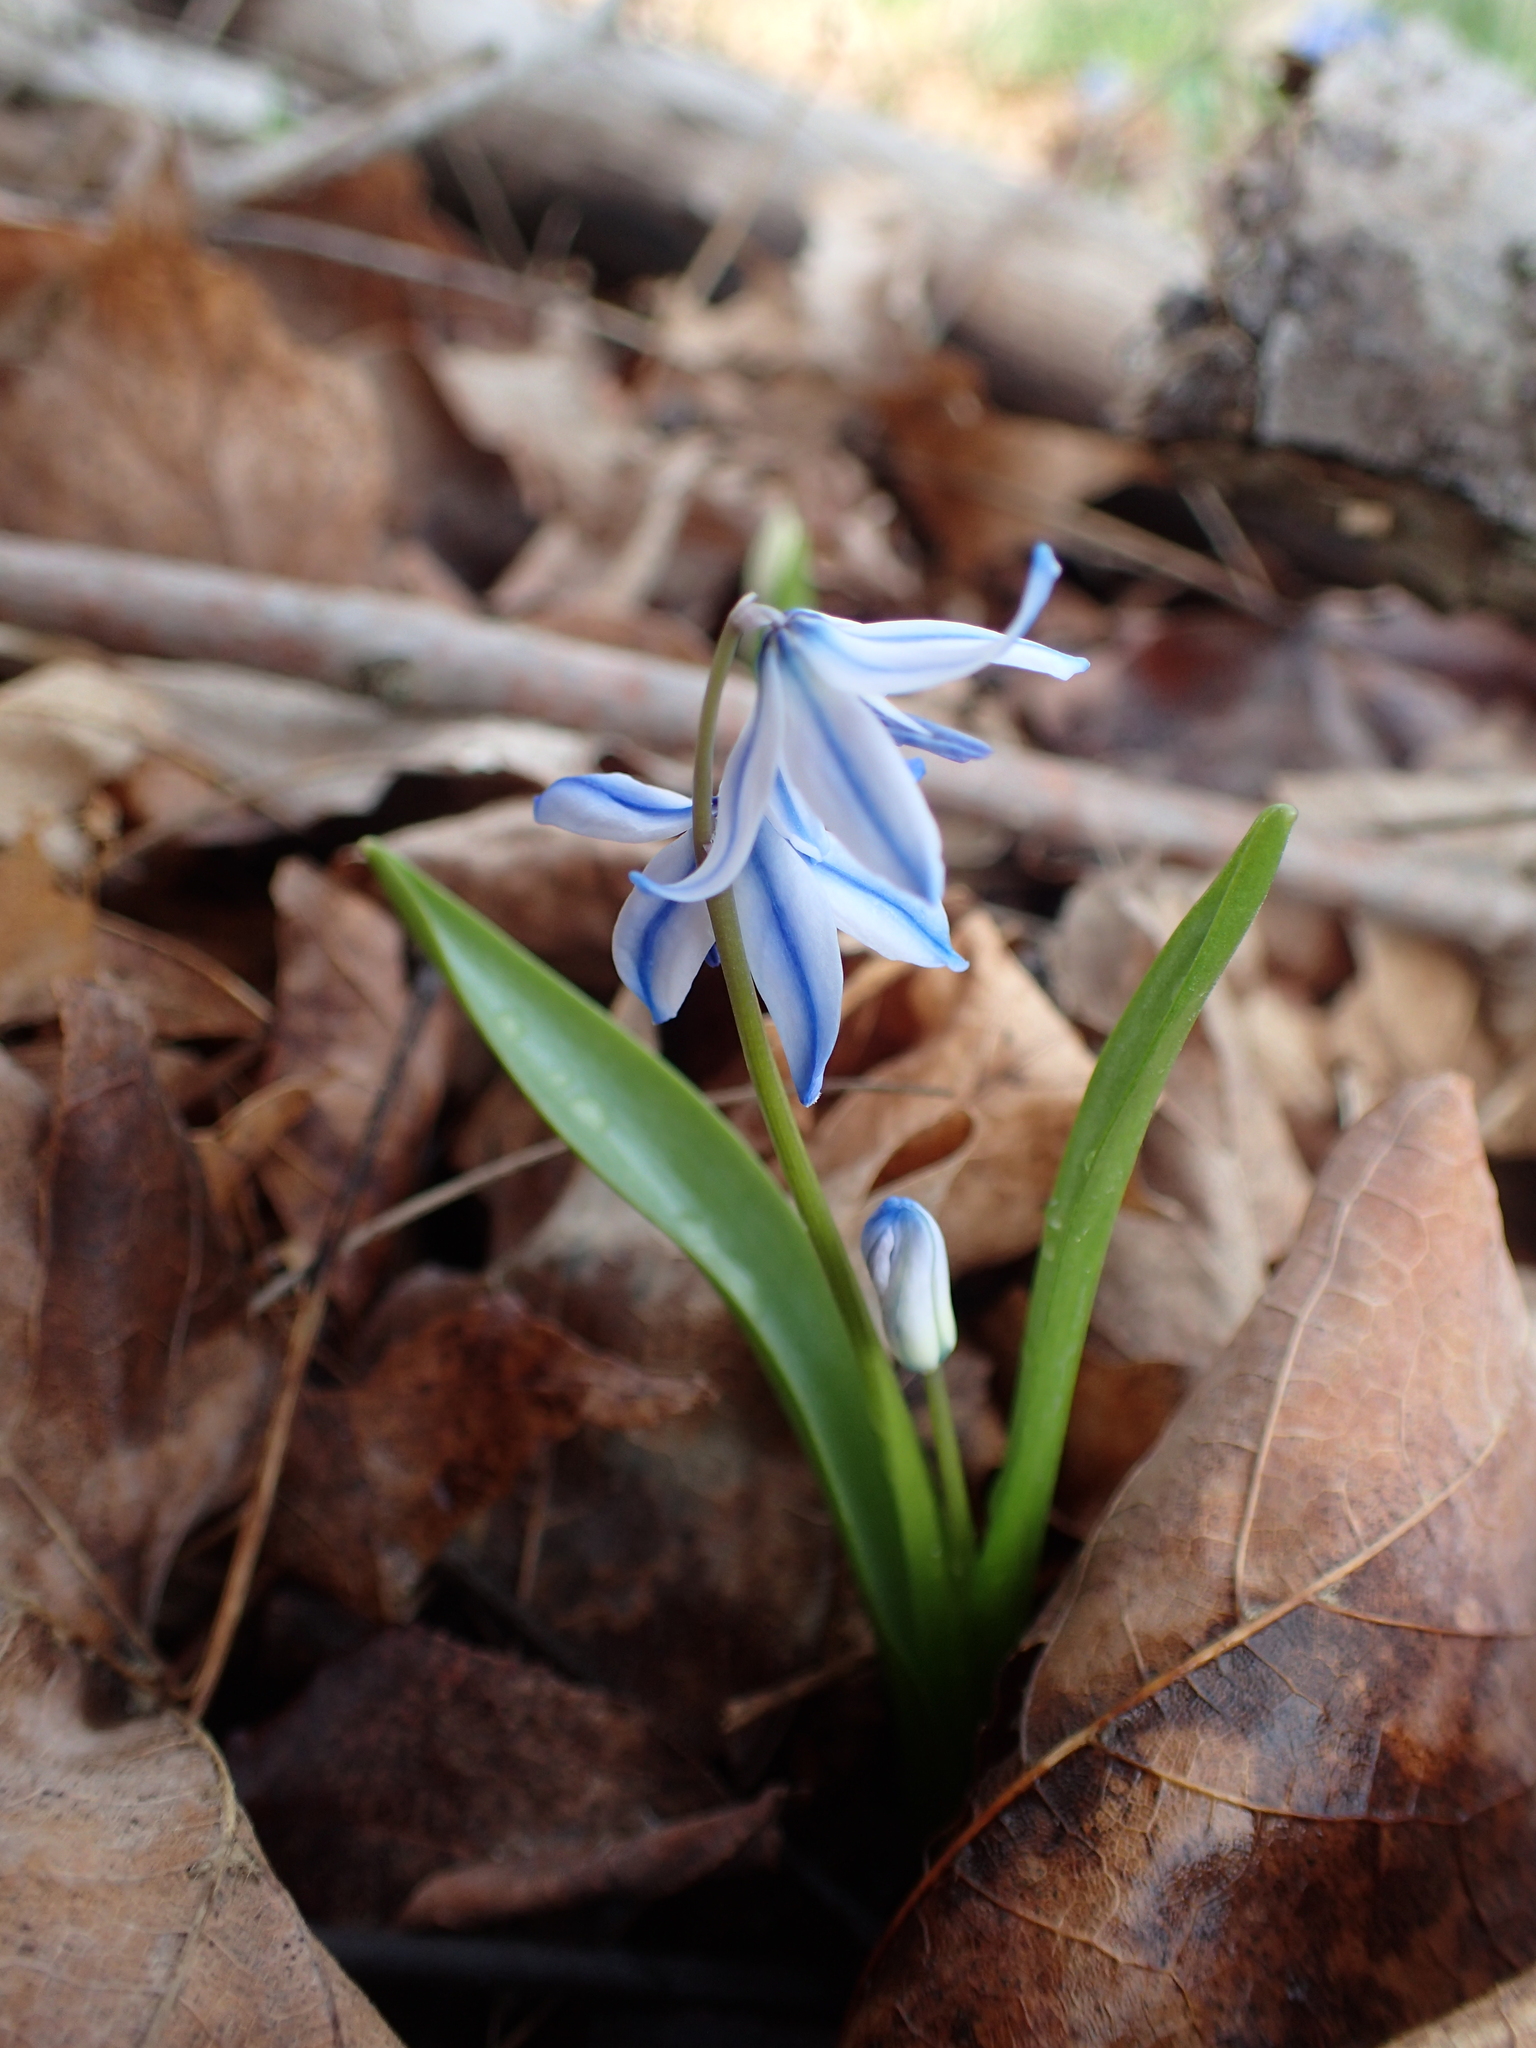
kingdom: Plantae
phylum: Tracheophyta
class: Liliopsida
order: Asparagales
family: Asparagaceae
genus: Scilla
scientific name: Scilla siberica
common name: Siberian squill
